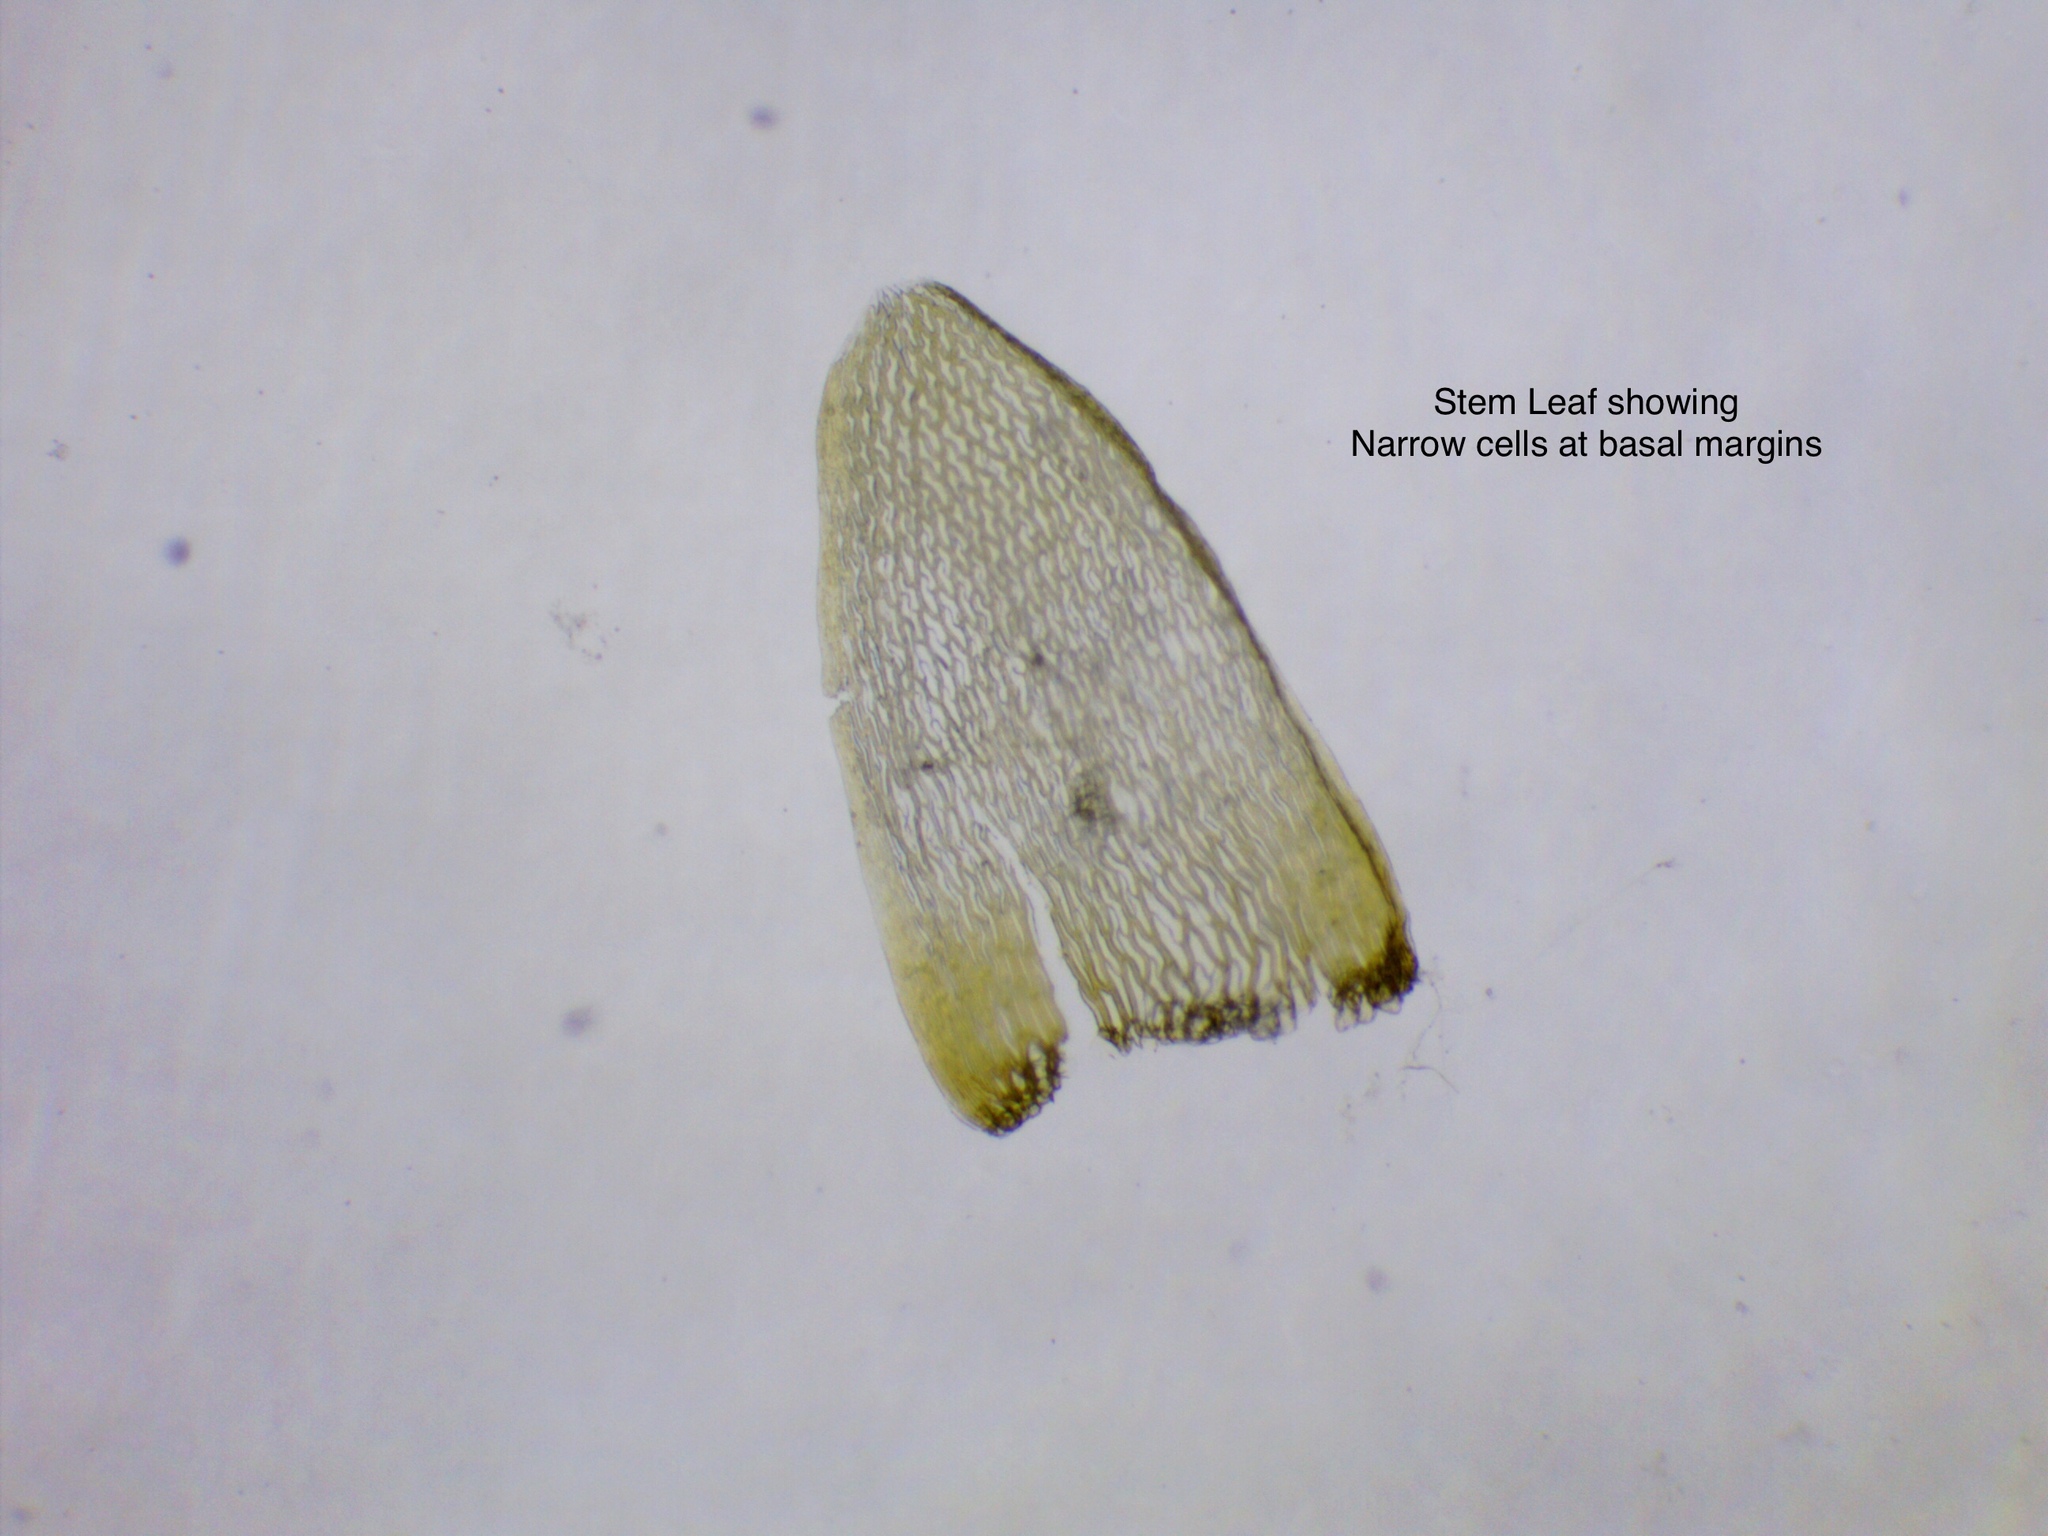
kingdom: Plantae
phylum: Bryophyta
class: Sphagnopsida
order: Sphagnales
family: Sphagnaceae
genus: Sphagnum
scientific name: Sphagnum fuscum
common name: Brown peat moss
